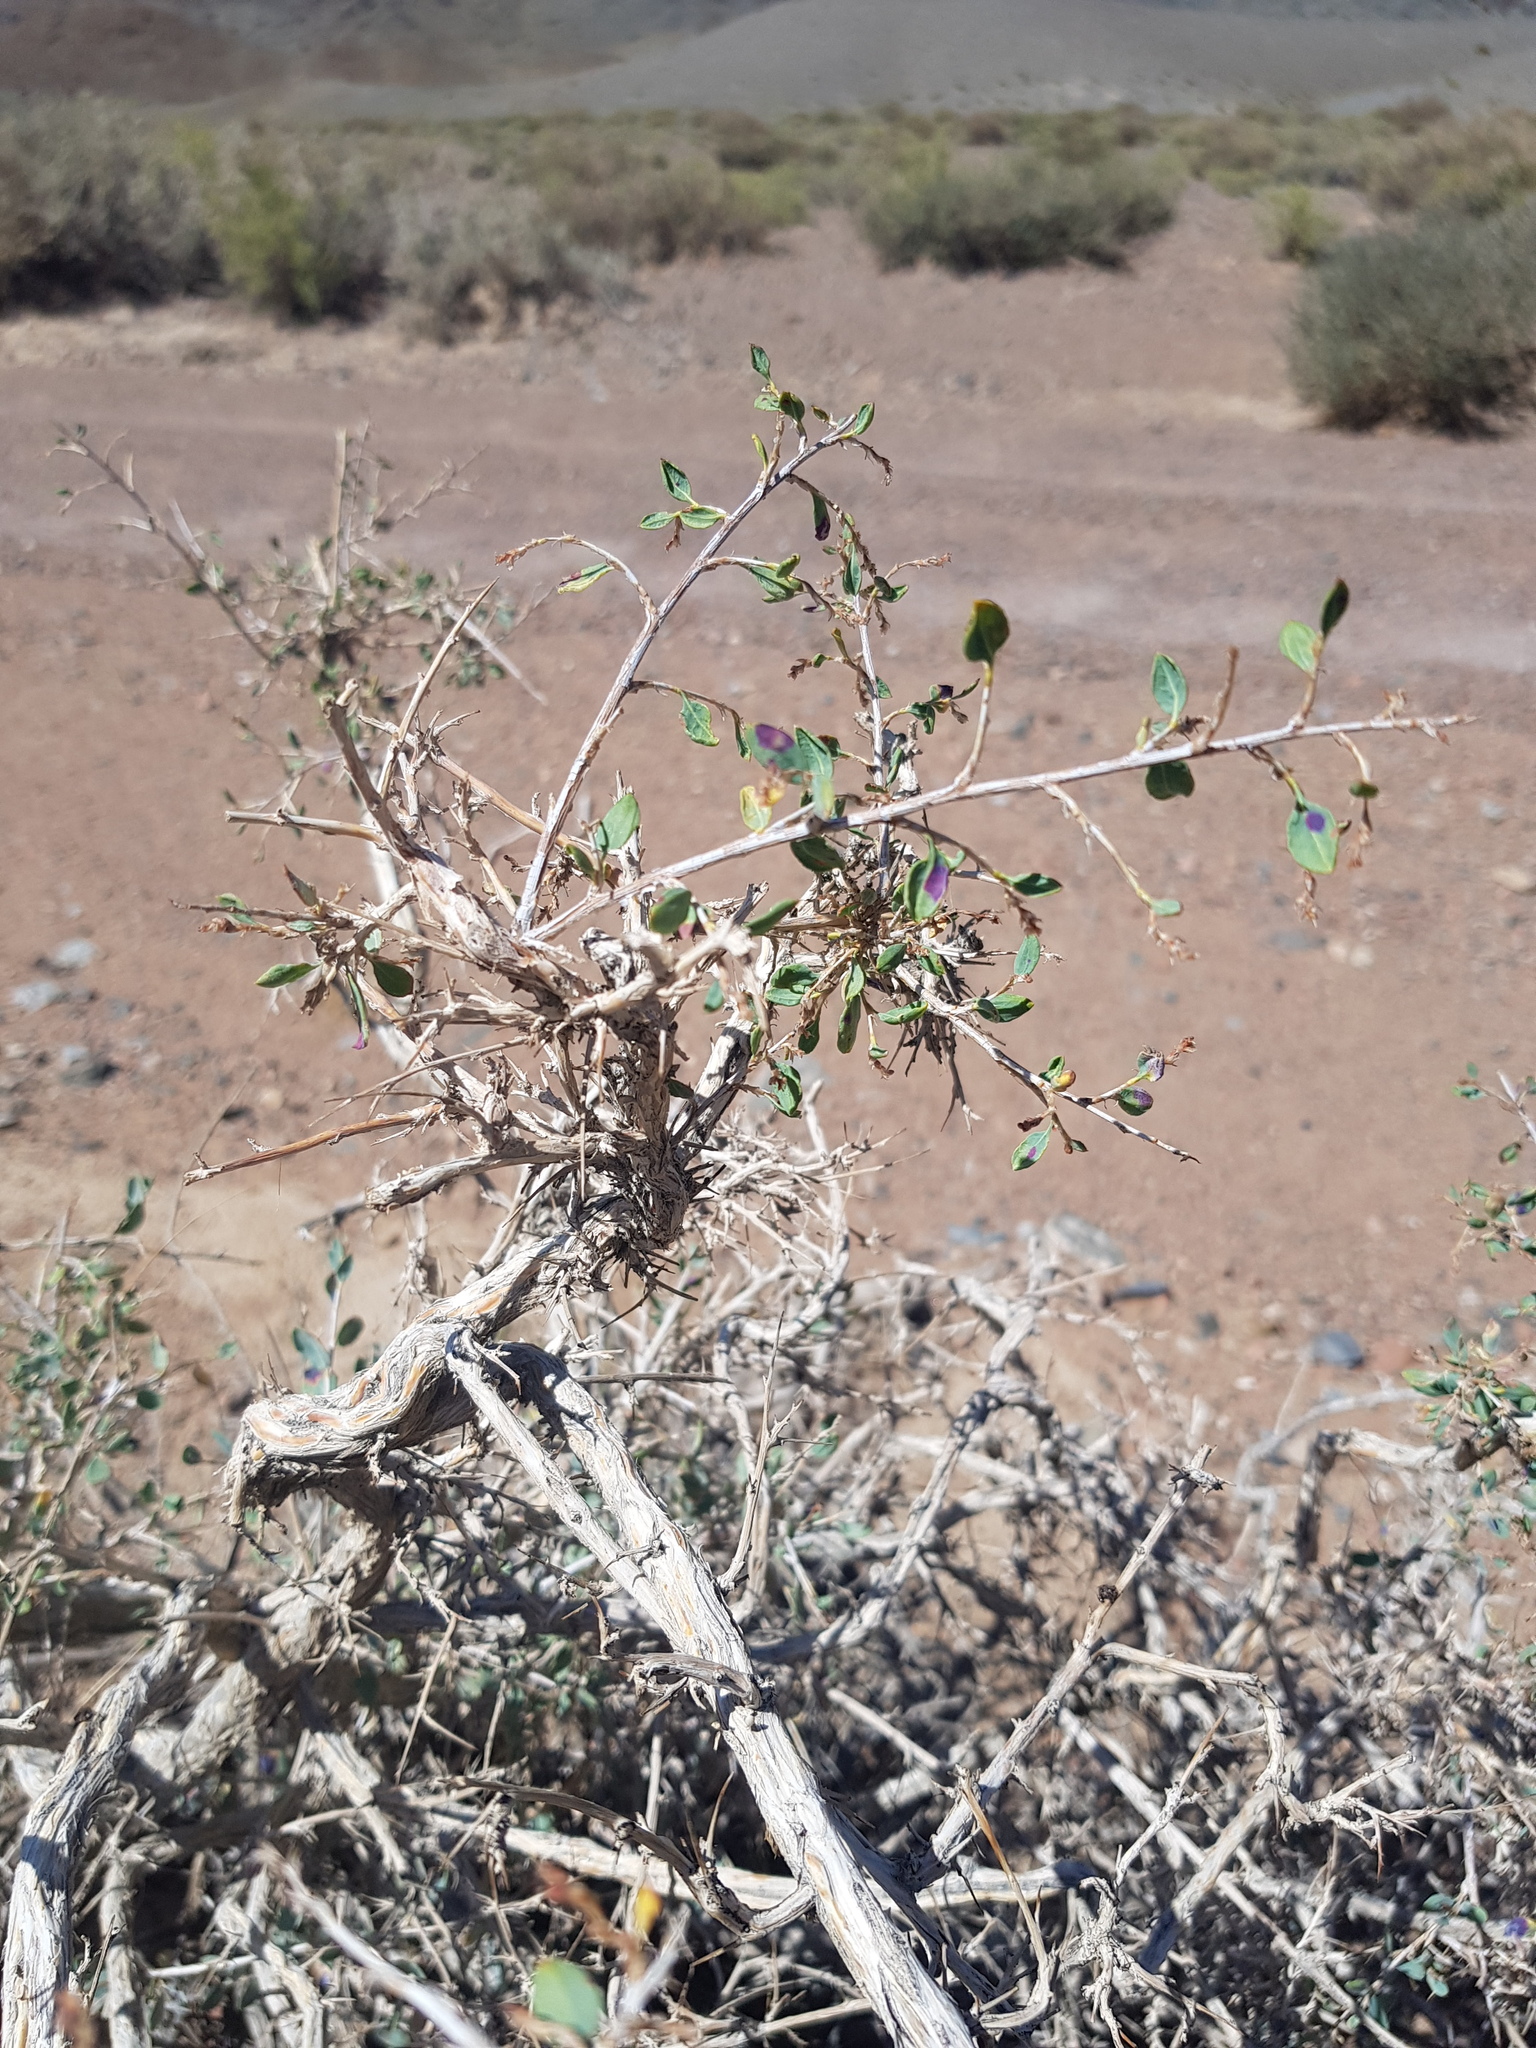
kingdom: Plantae
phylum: Tracheophyta
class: Magnoliopsida
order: Caryophyllales
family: Polygonaceae
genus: Atraphaxis
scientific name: Atraphaxis spinosa
